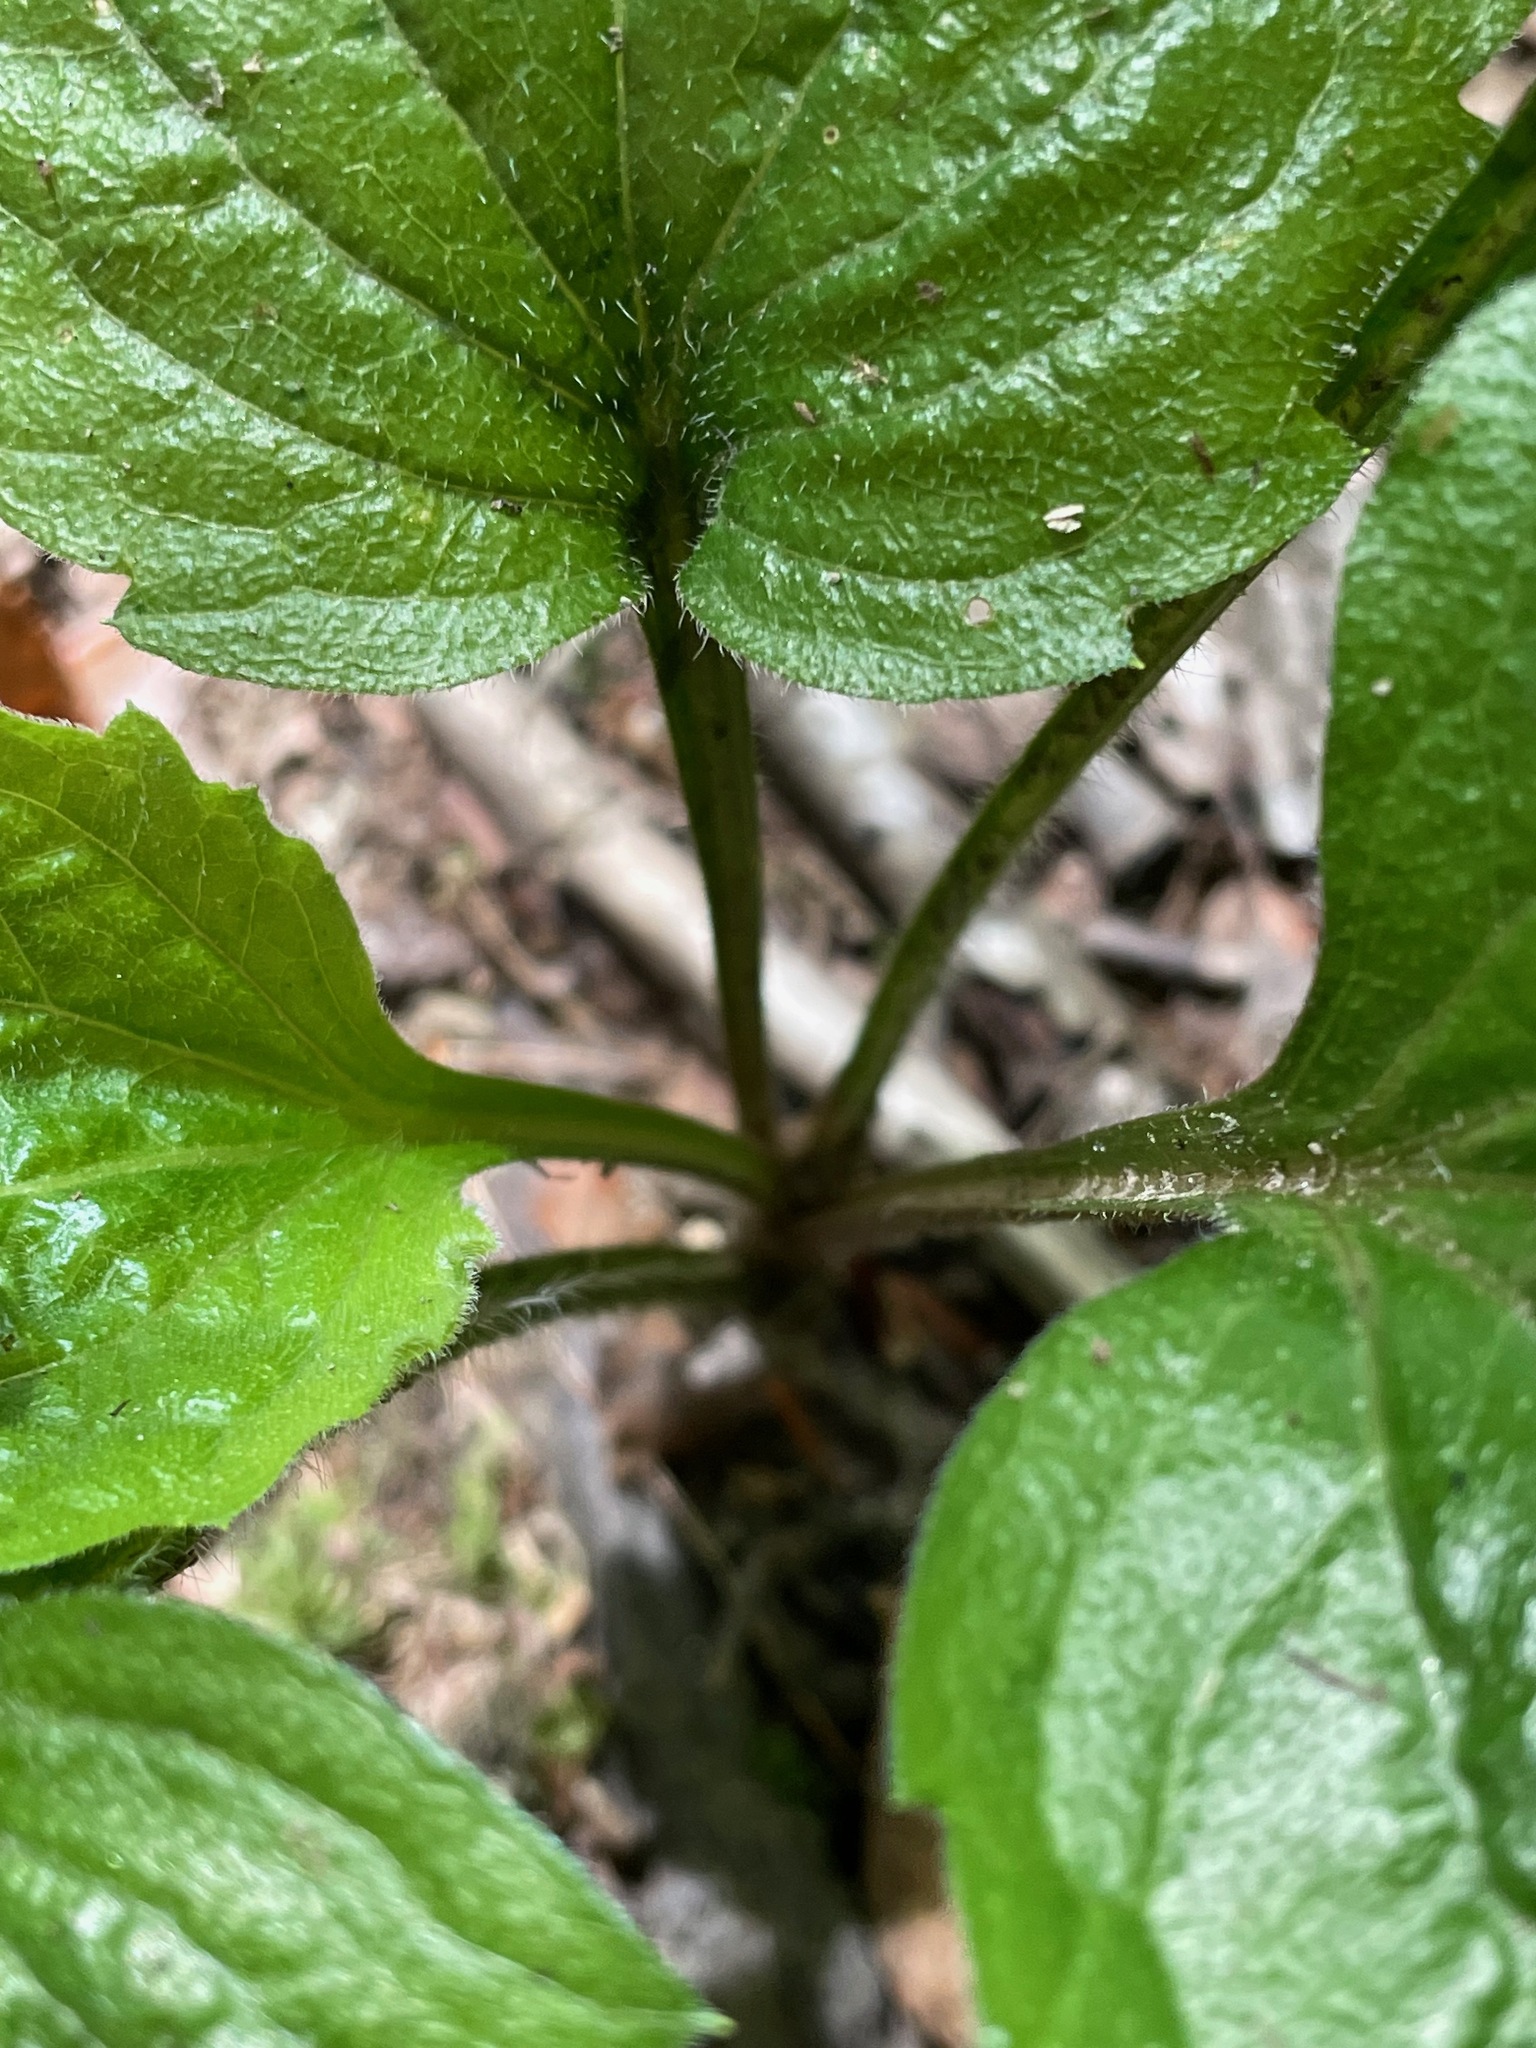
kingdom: Plantae
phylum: Tracheophyta
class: Magnoliopsida
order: Asterales
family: Asteraceae
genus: Erigeron
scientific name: Erigeron annuus
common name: Tall fleabane
